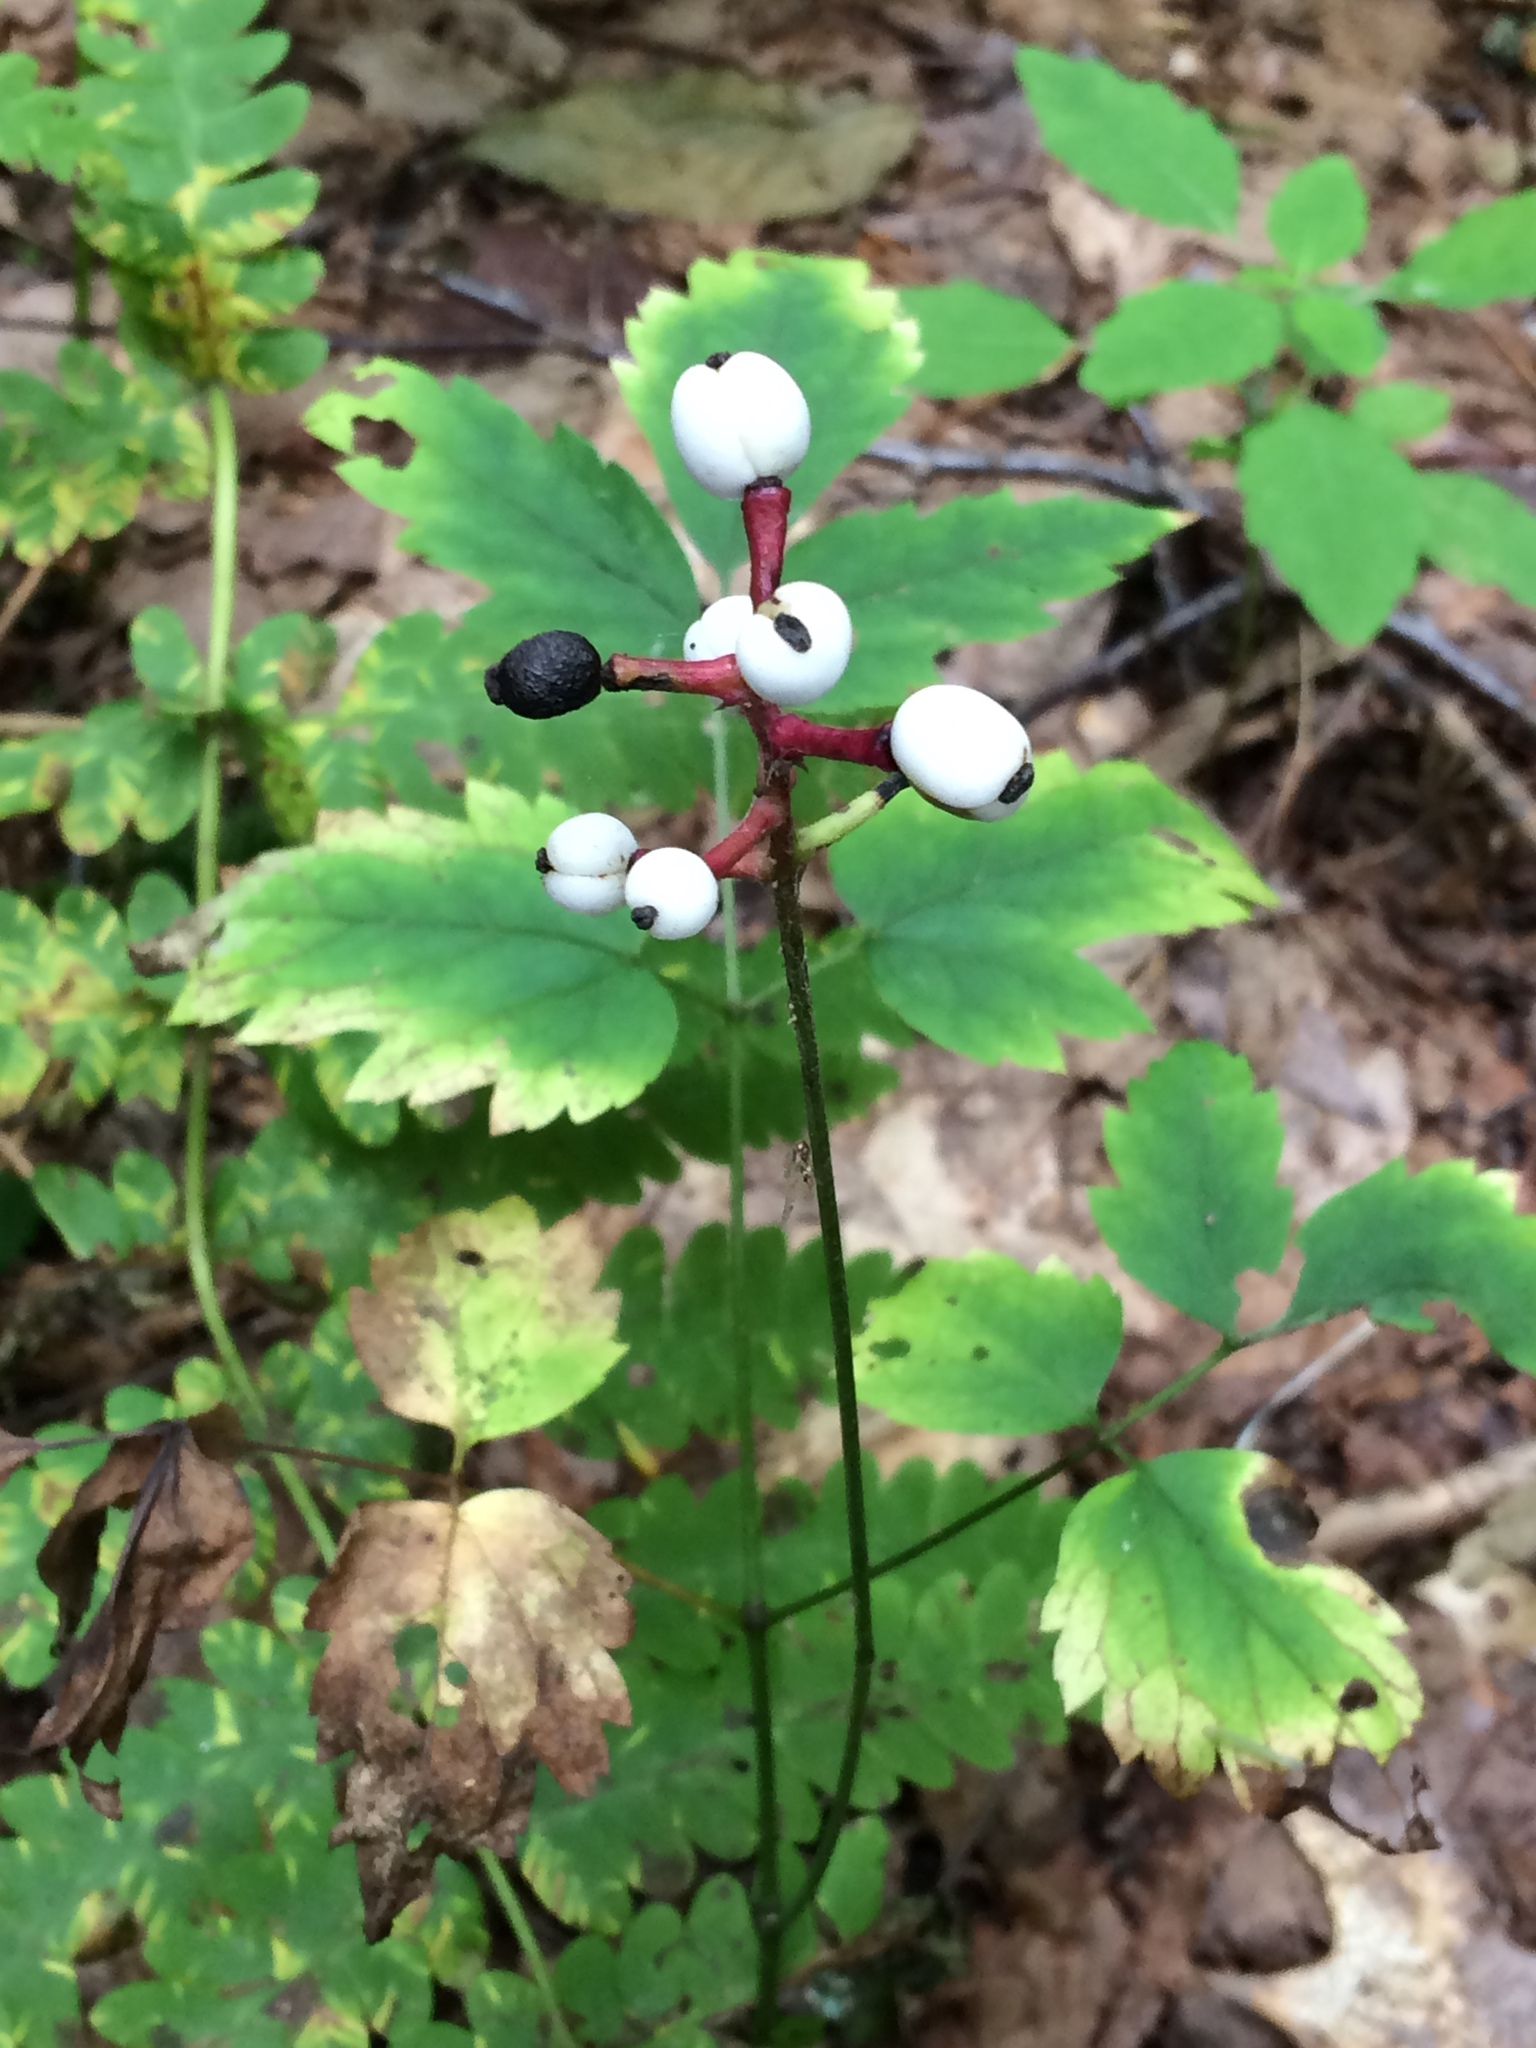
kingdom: Plantae
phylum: Tracheophyta
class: Magnoliopsida
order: Ranunculales
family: Ranunculaceae
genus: Actaea
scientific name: Actaea pachypoda
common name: Doll's-eyes
